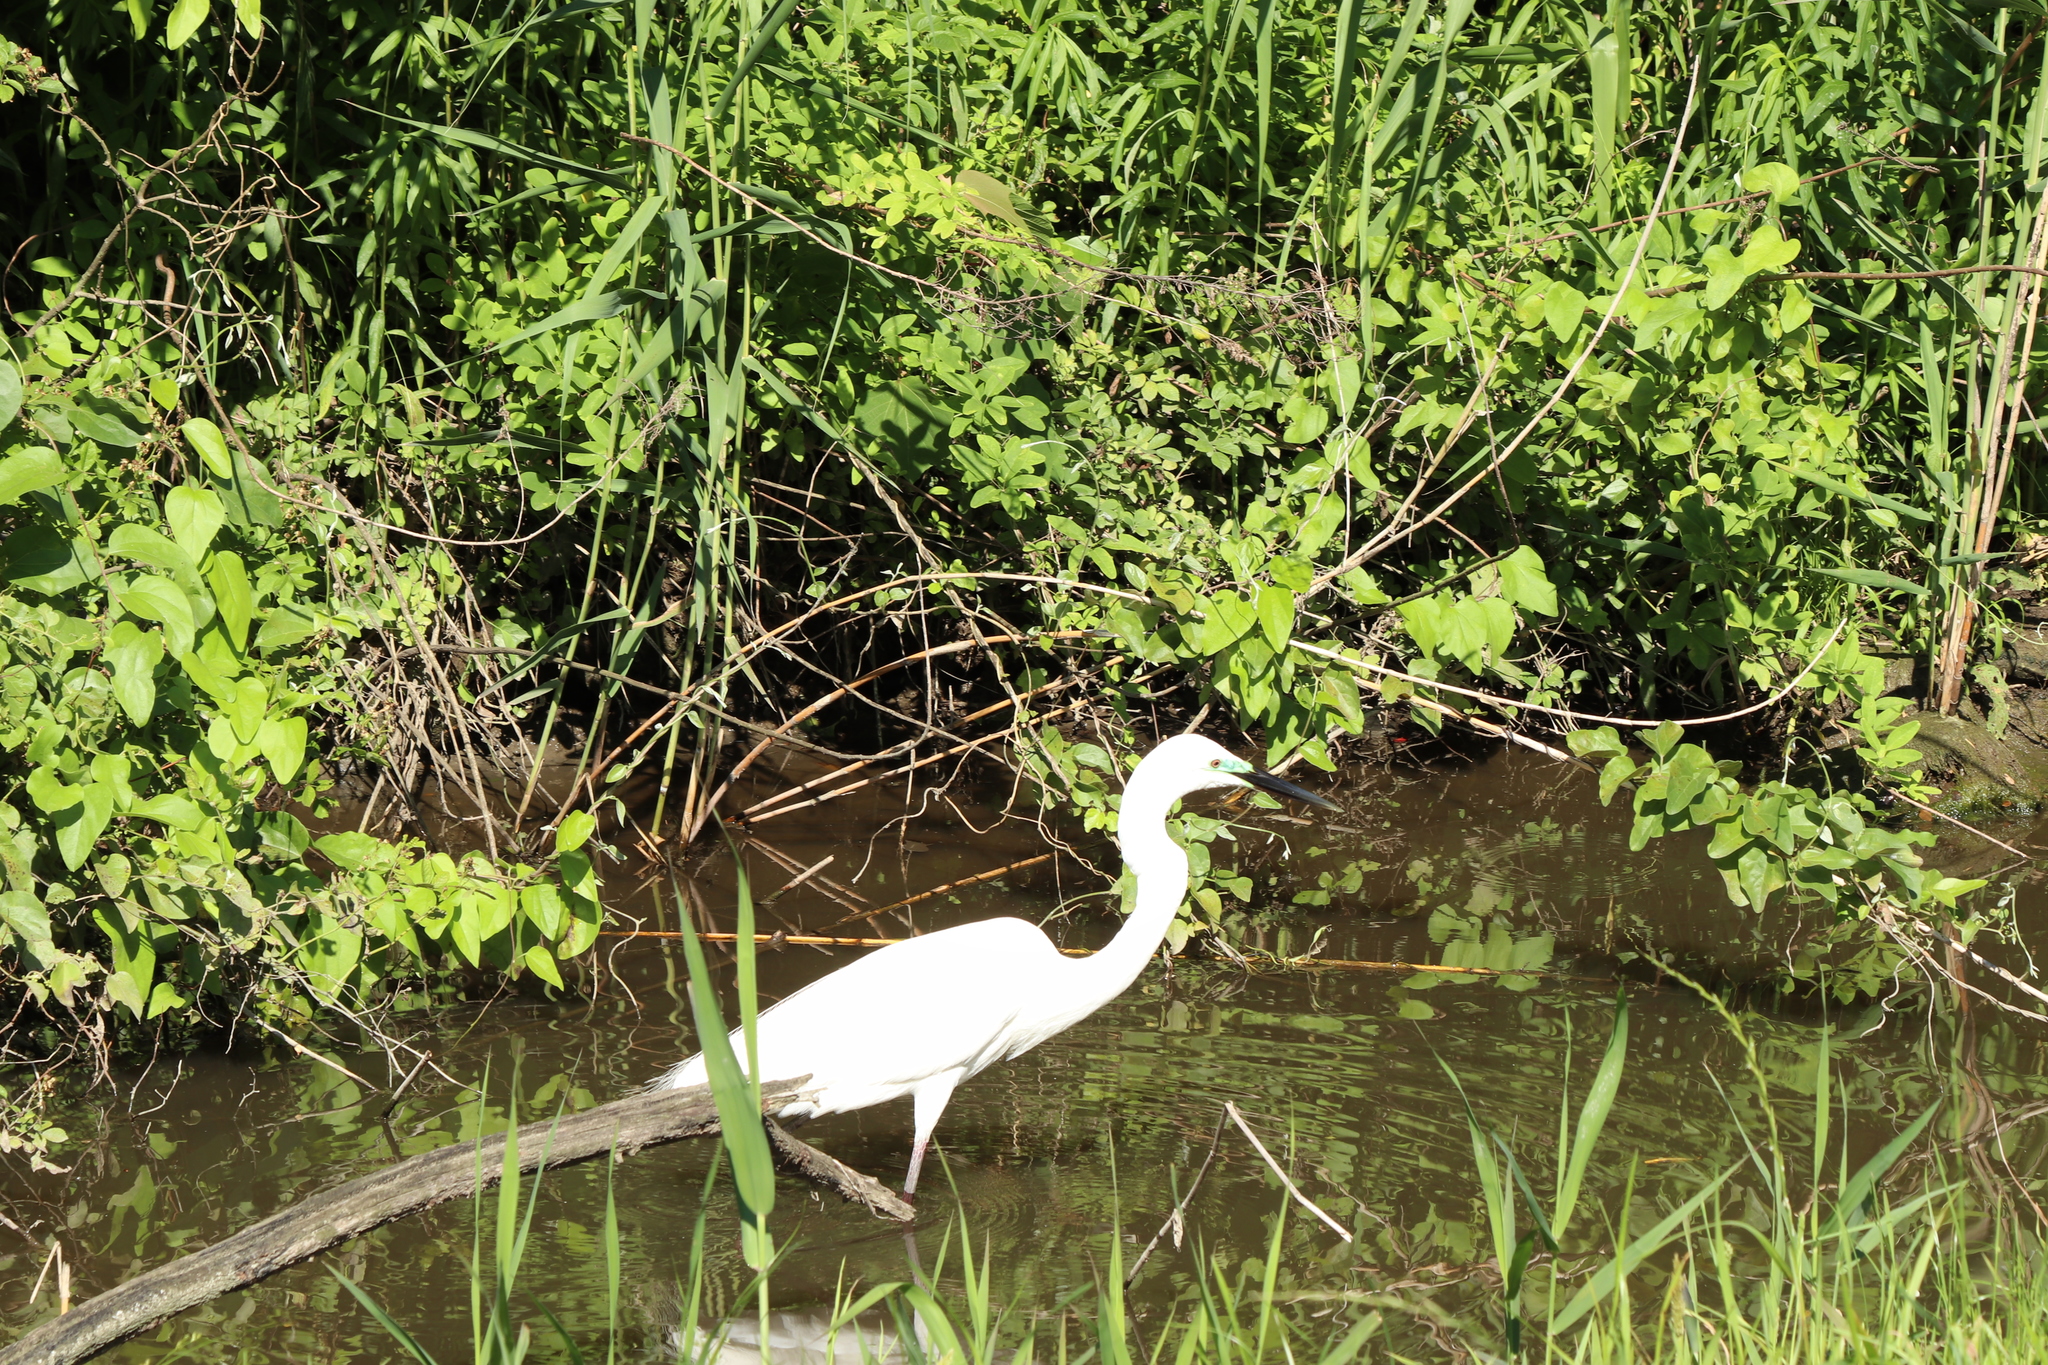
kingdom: Animalia
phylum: Chordata
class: Aves
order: Pelecaniformes
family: Ardeidae
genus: Ardea
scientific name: Ardea alba
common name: Great egret
